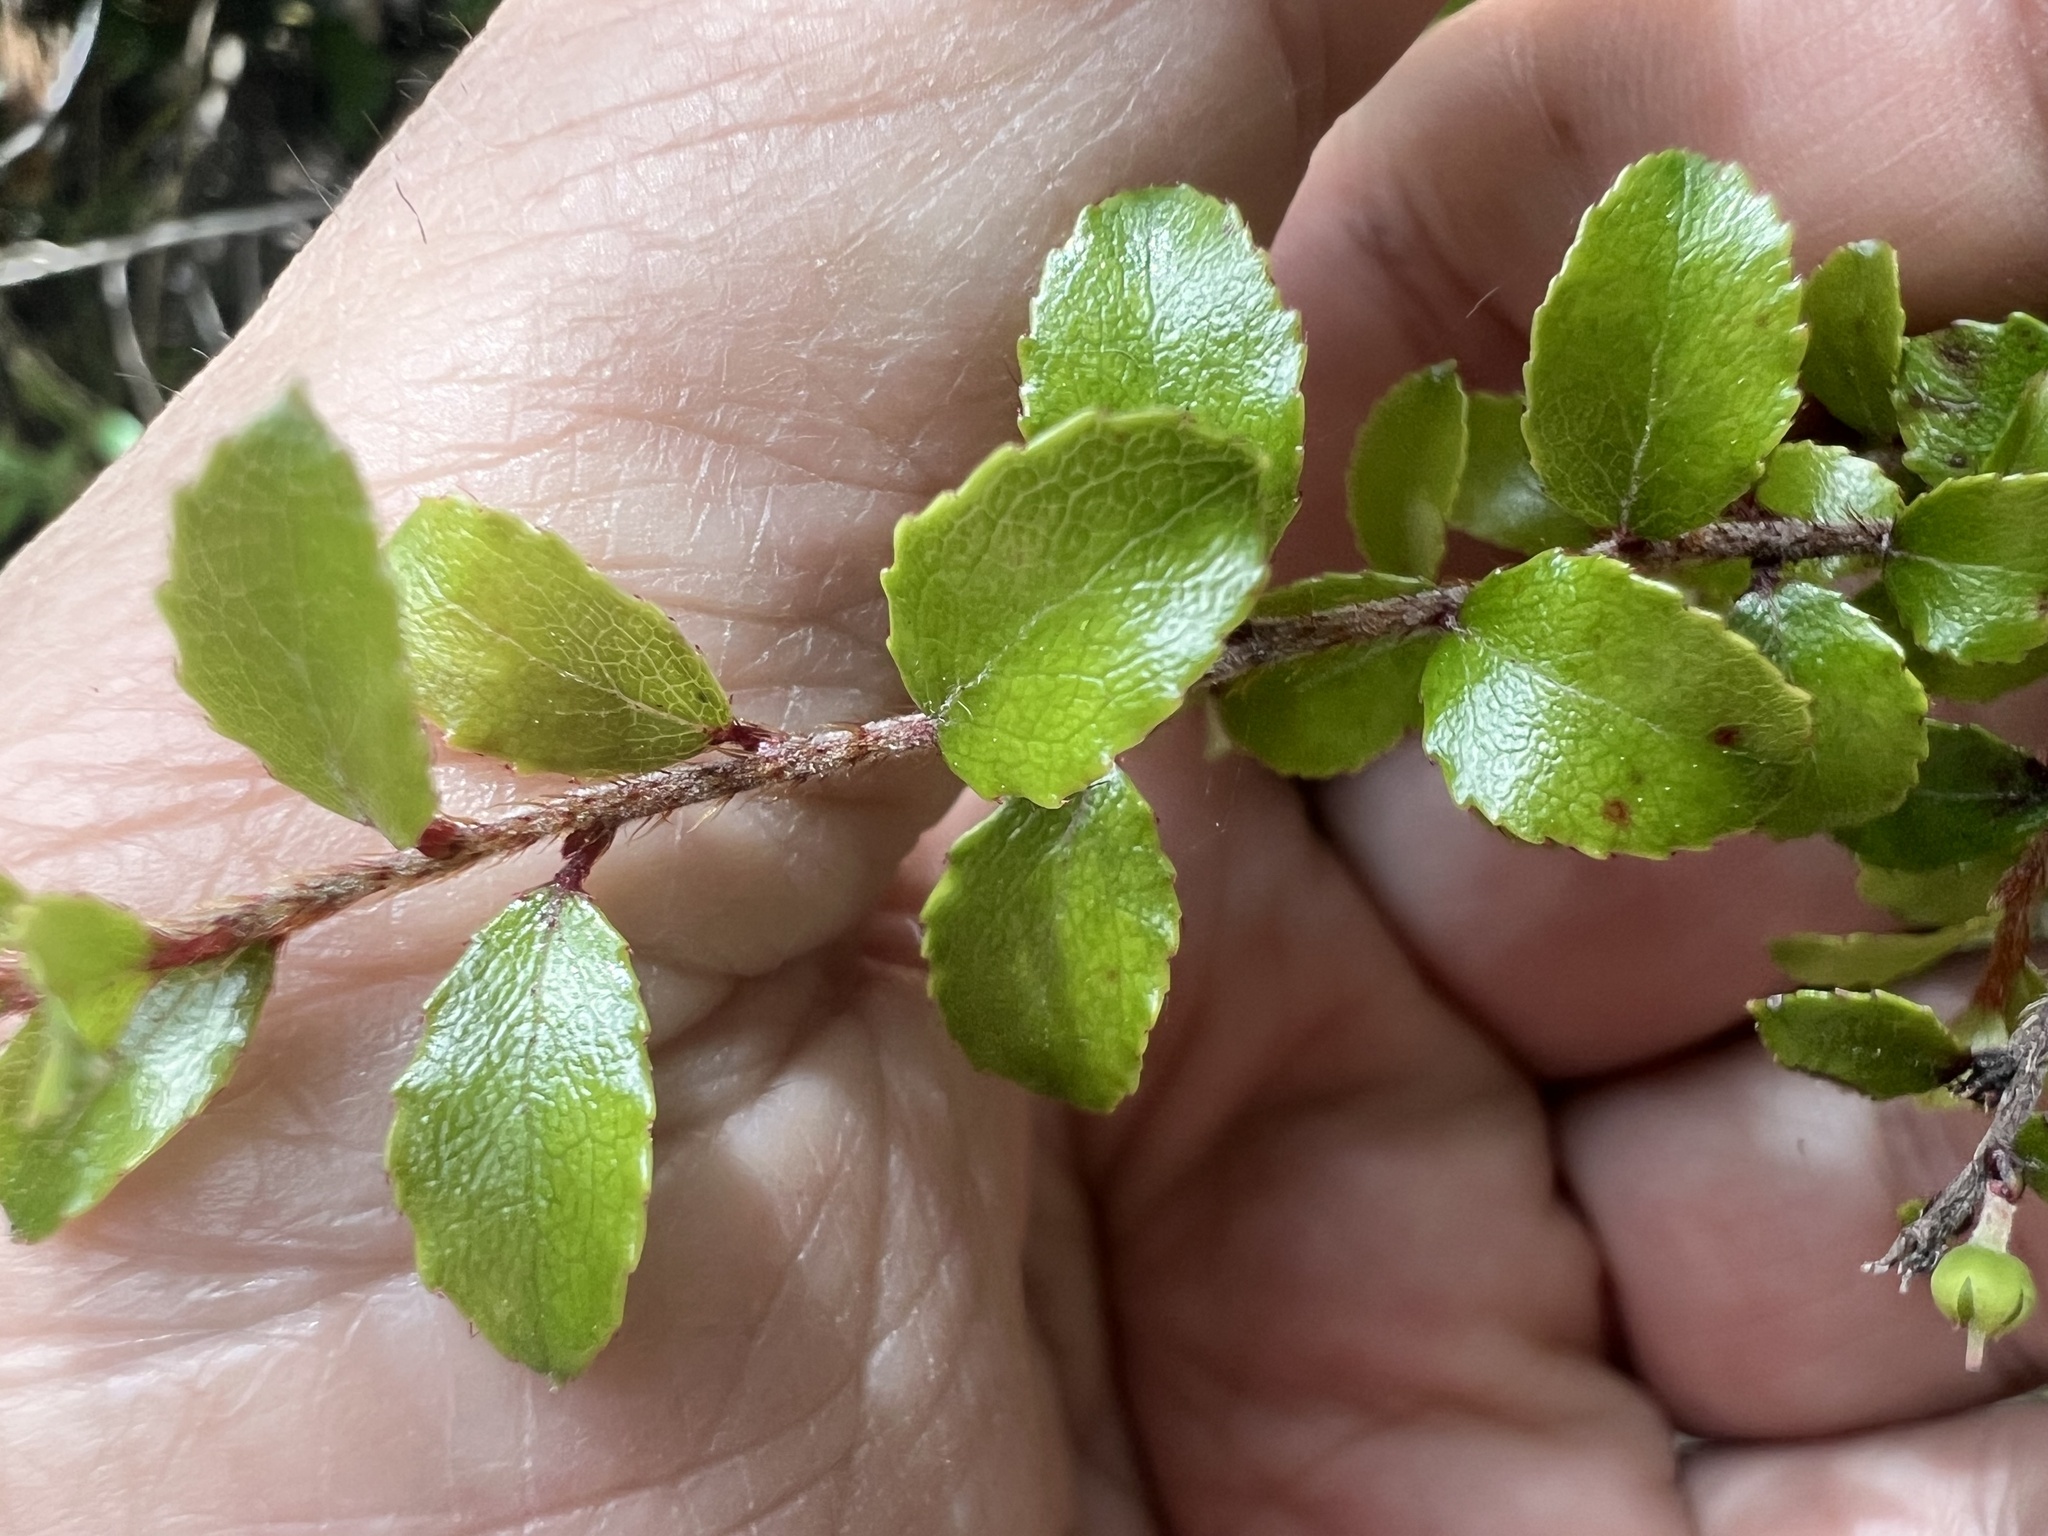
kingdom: Plantae
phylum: Tracheophyta
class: Magnoliopsida
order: Ericales
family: Ericaceae
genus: Gaultheria
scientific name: Gaultheria antipoda
